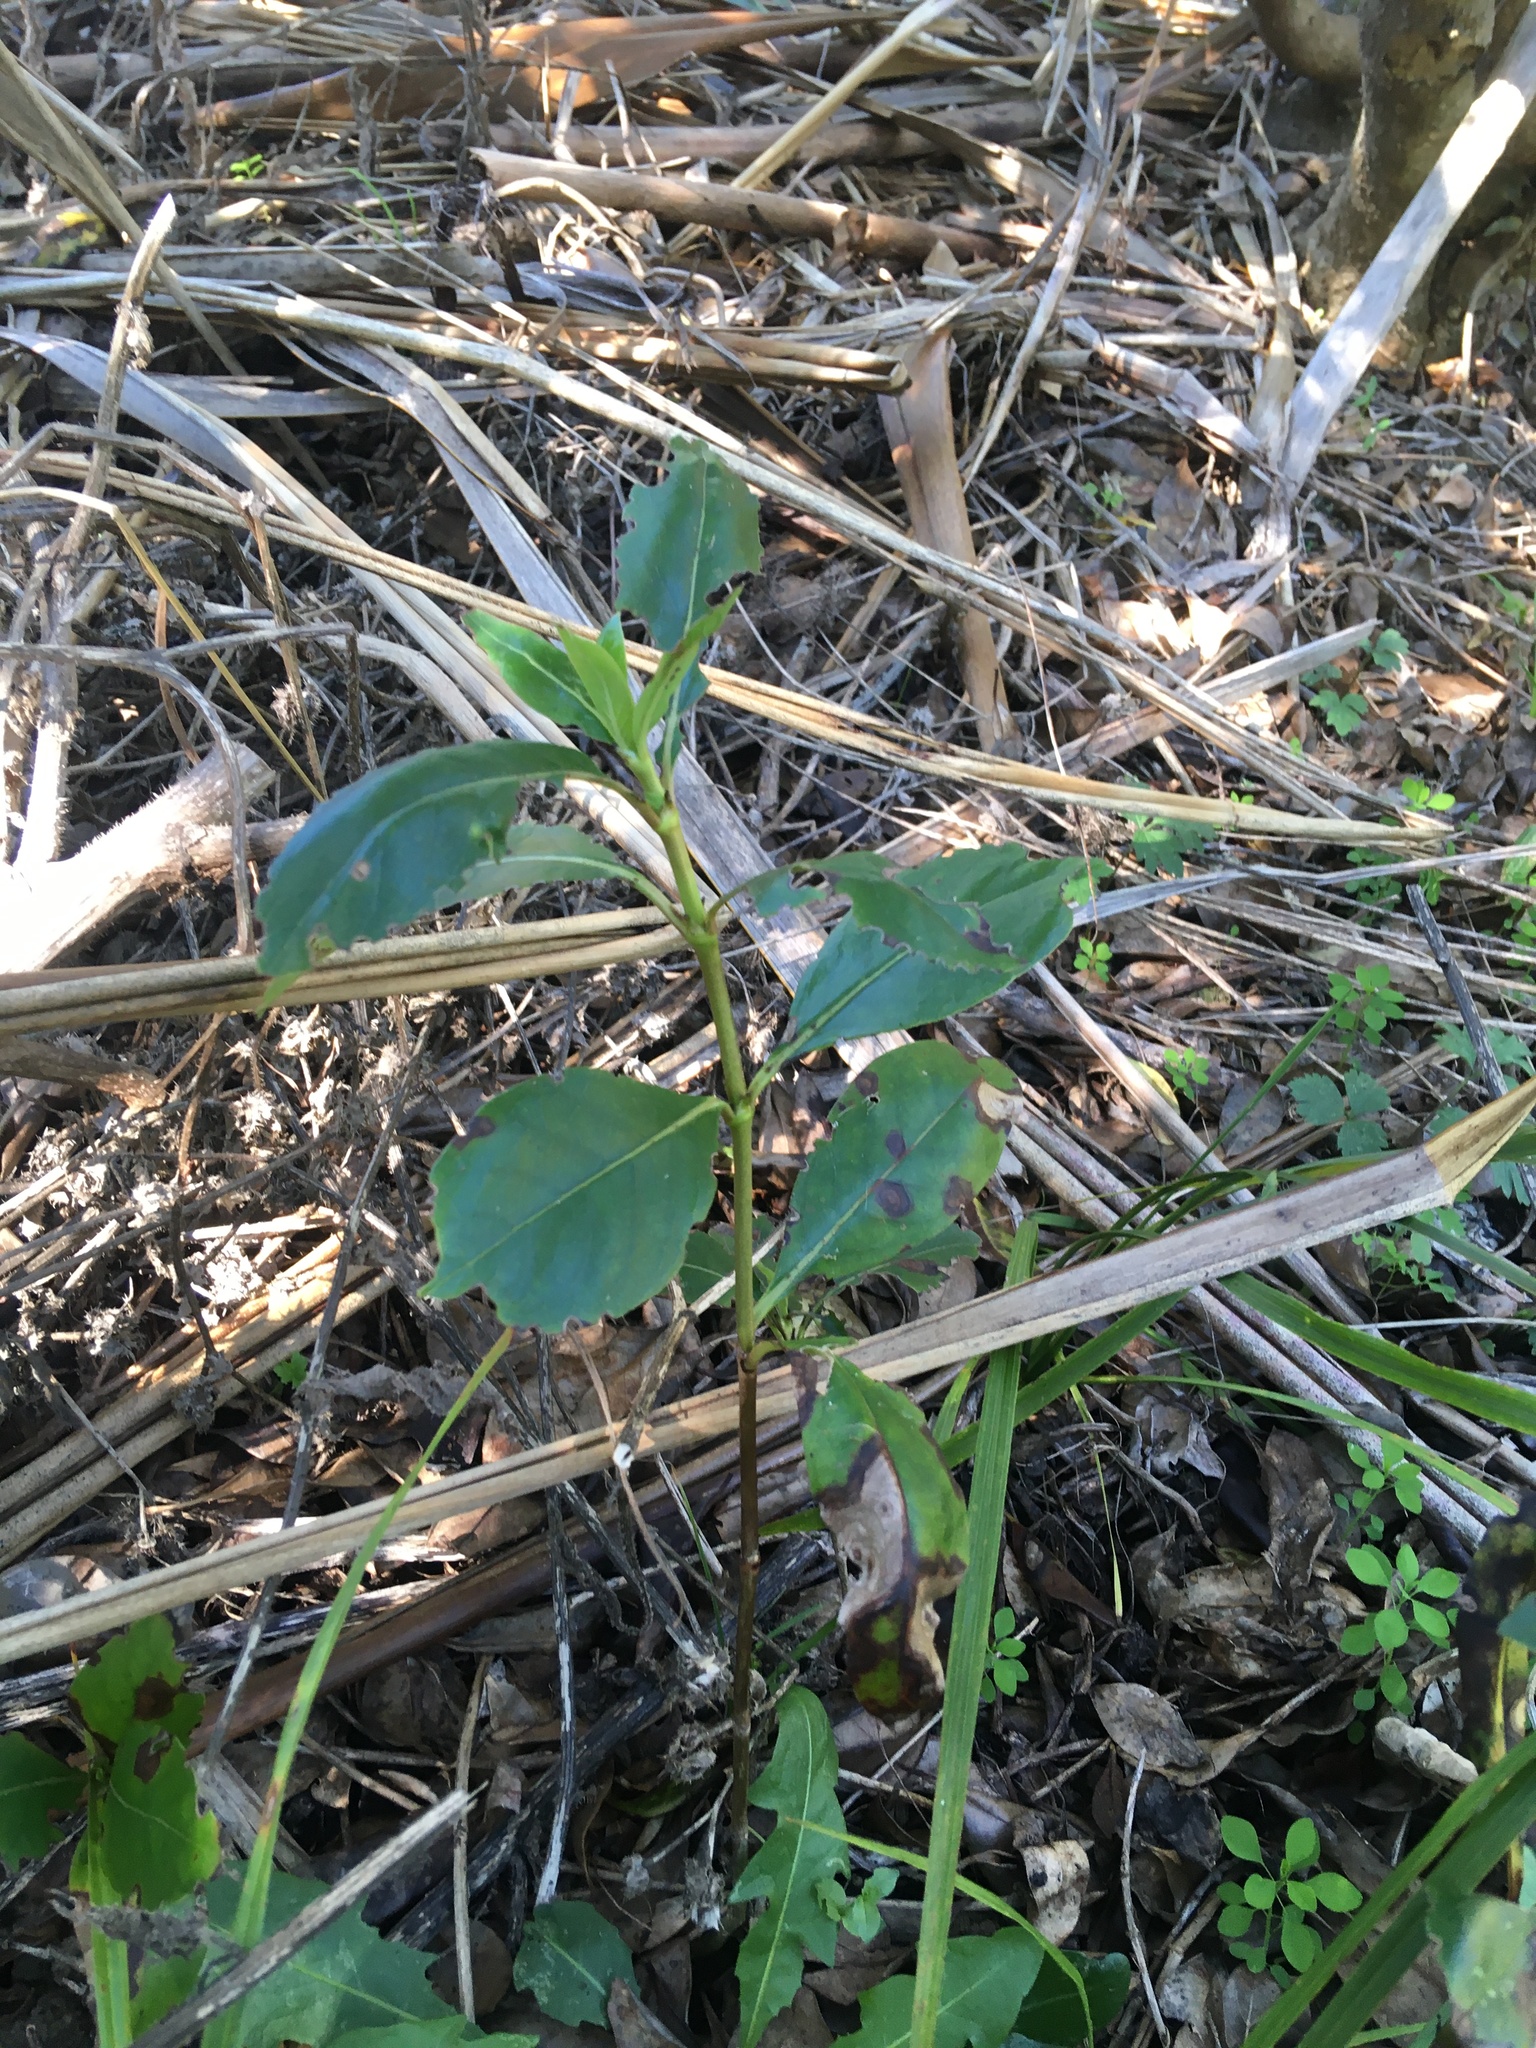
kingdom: Plantae
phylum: Tracheophyta
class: Magnoliopsida
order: Gentianales
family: Rubiaceae
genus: Coprosma
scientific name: Coprosma robusta
